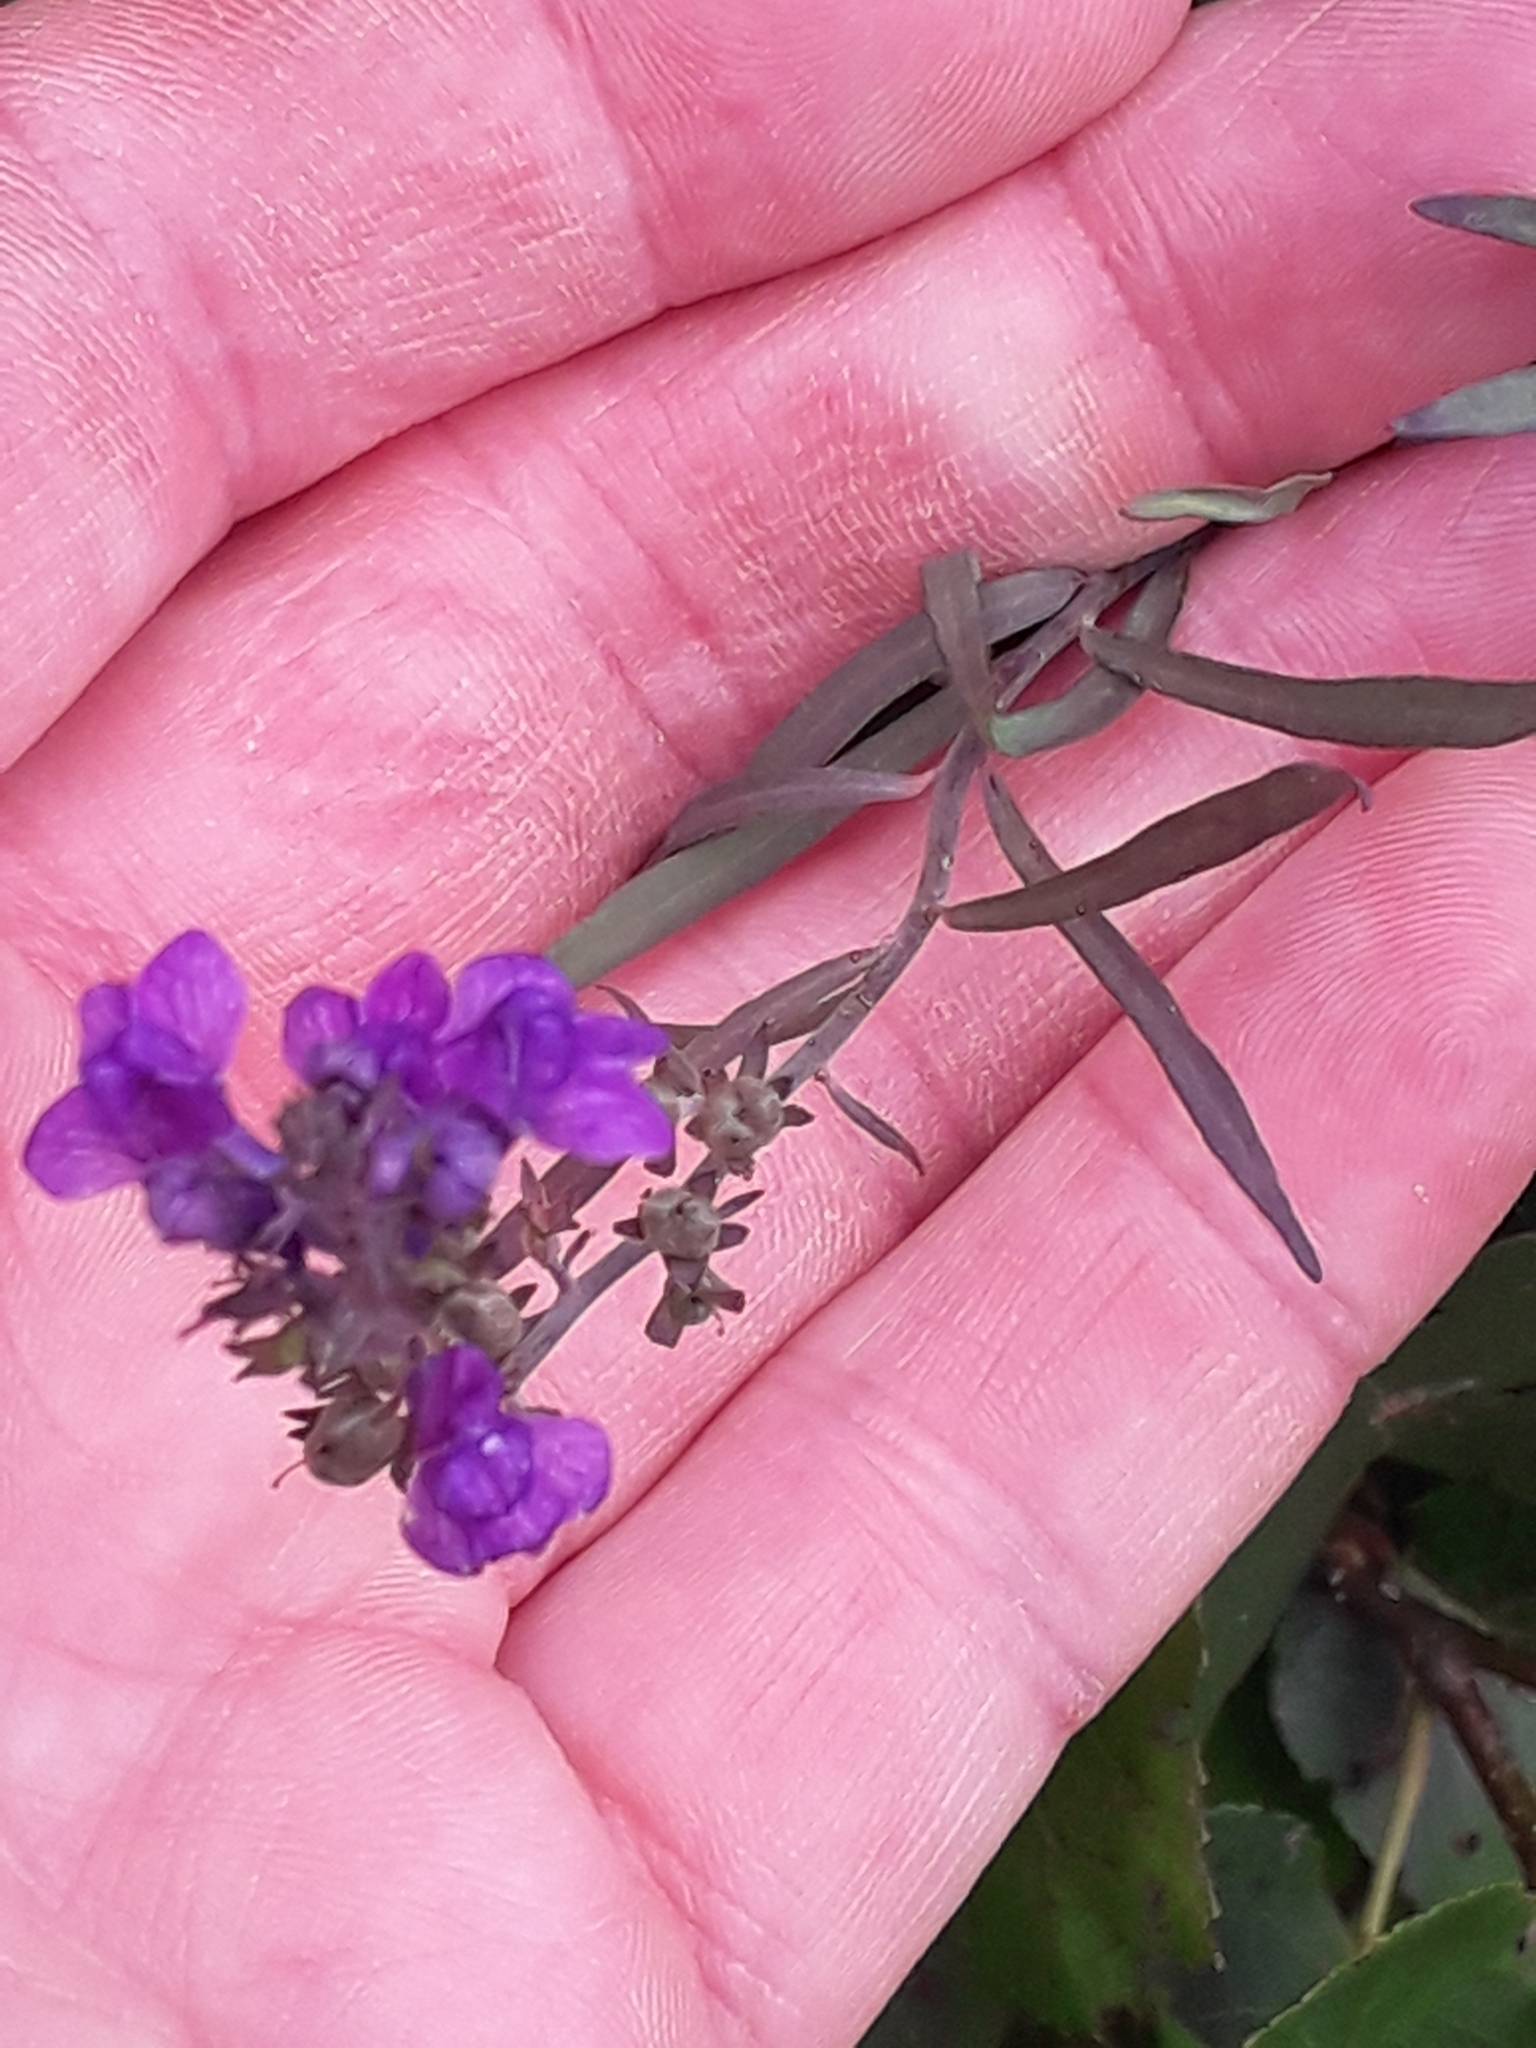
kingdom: Plantae
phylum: Tracheophyta
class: Magnoliopsida
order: Lamiales
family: Plantaginaceae
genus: Linaria
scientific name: Linaria purpurea
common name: Purple toadflax
